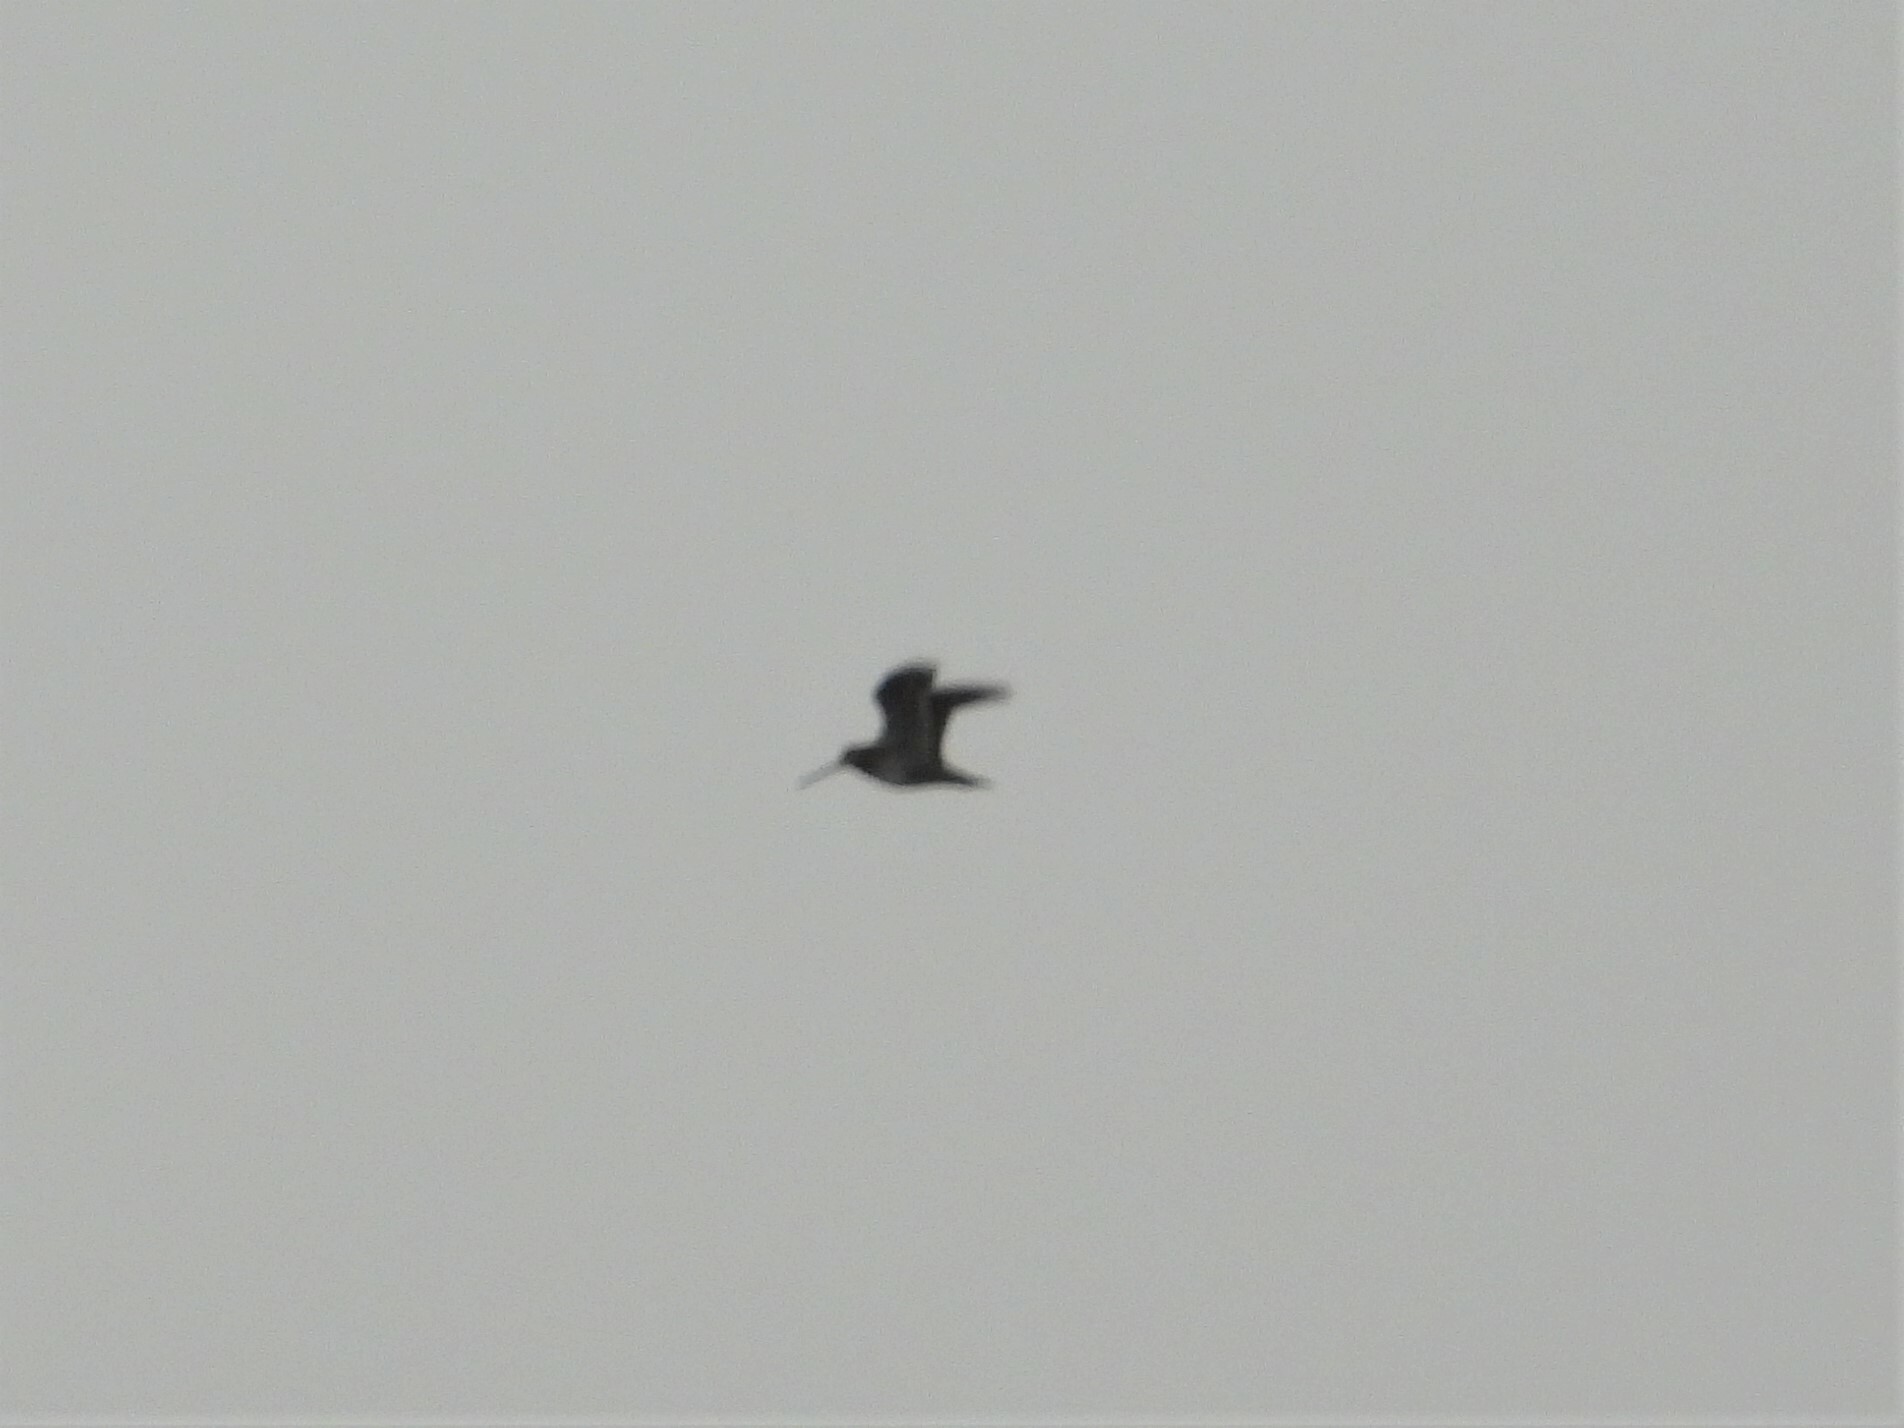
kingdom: Animalia
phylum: Chordata
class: Aves
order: Charadriiformes
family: Scolopacidae
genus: Gallinago
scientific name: Gallinago delicata
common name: Wilson's snipe
